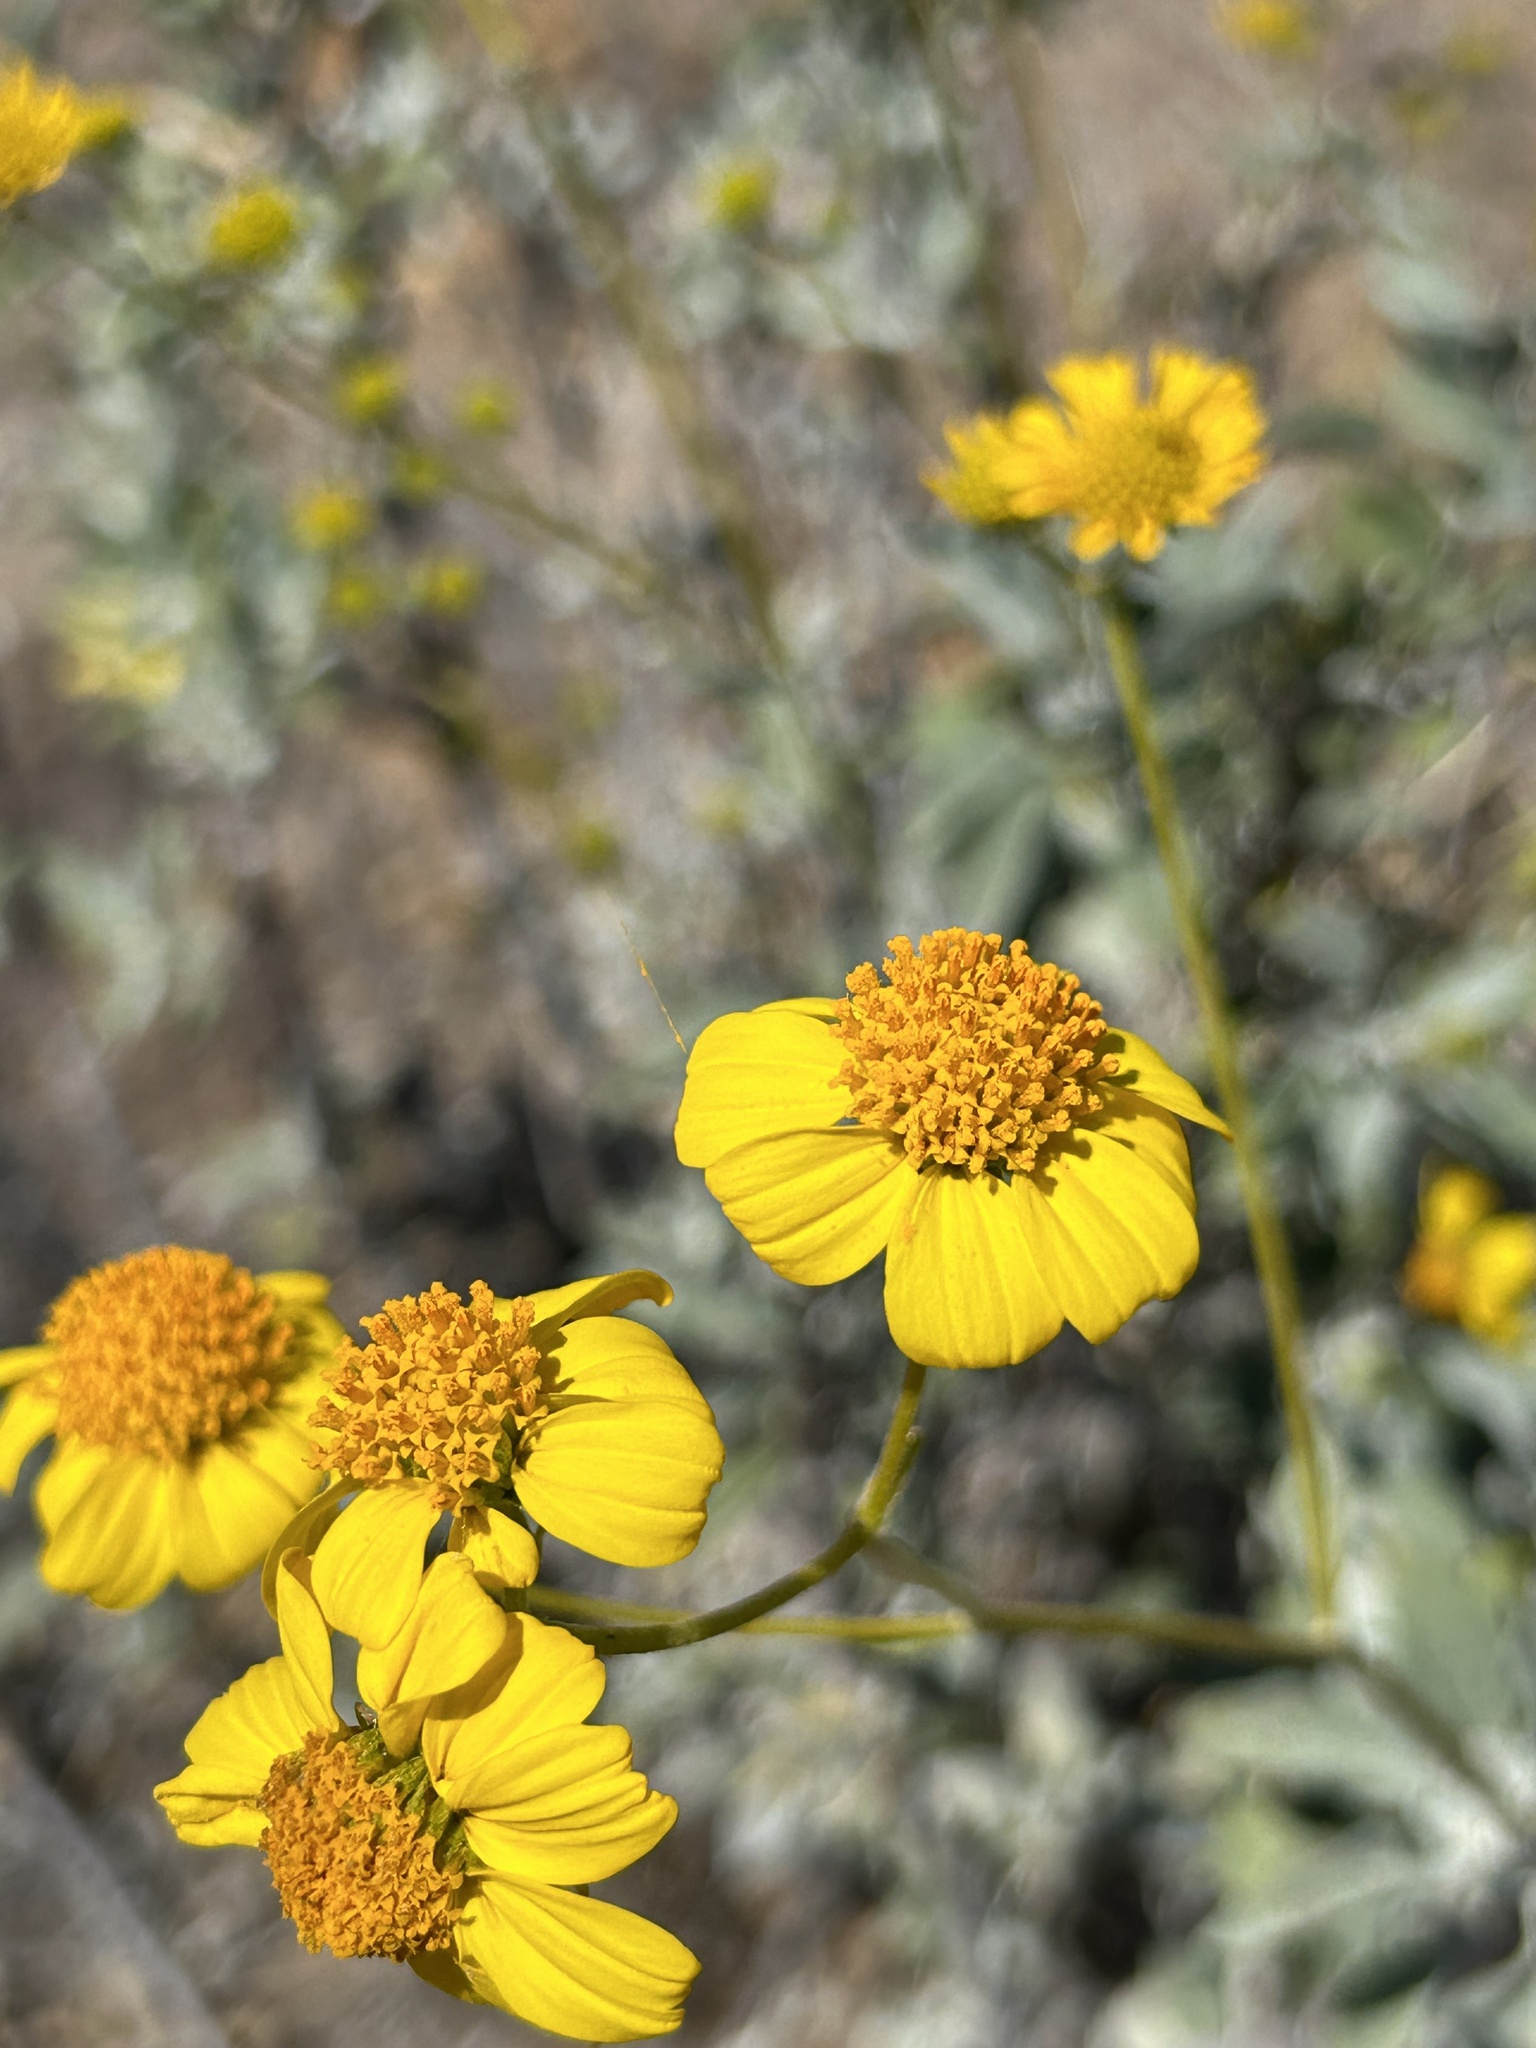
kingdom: Plantae
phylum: Tracheophyta
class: Magnoliopsida
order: Asterales
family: Asteraceae
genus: Encelia
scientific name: Encelia farinosa
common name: Brittlebush
